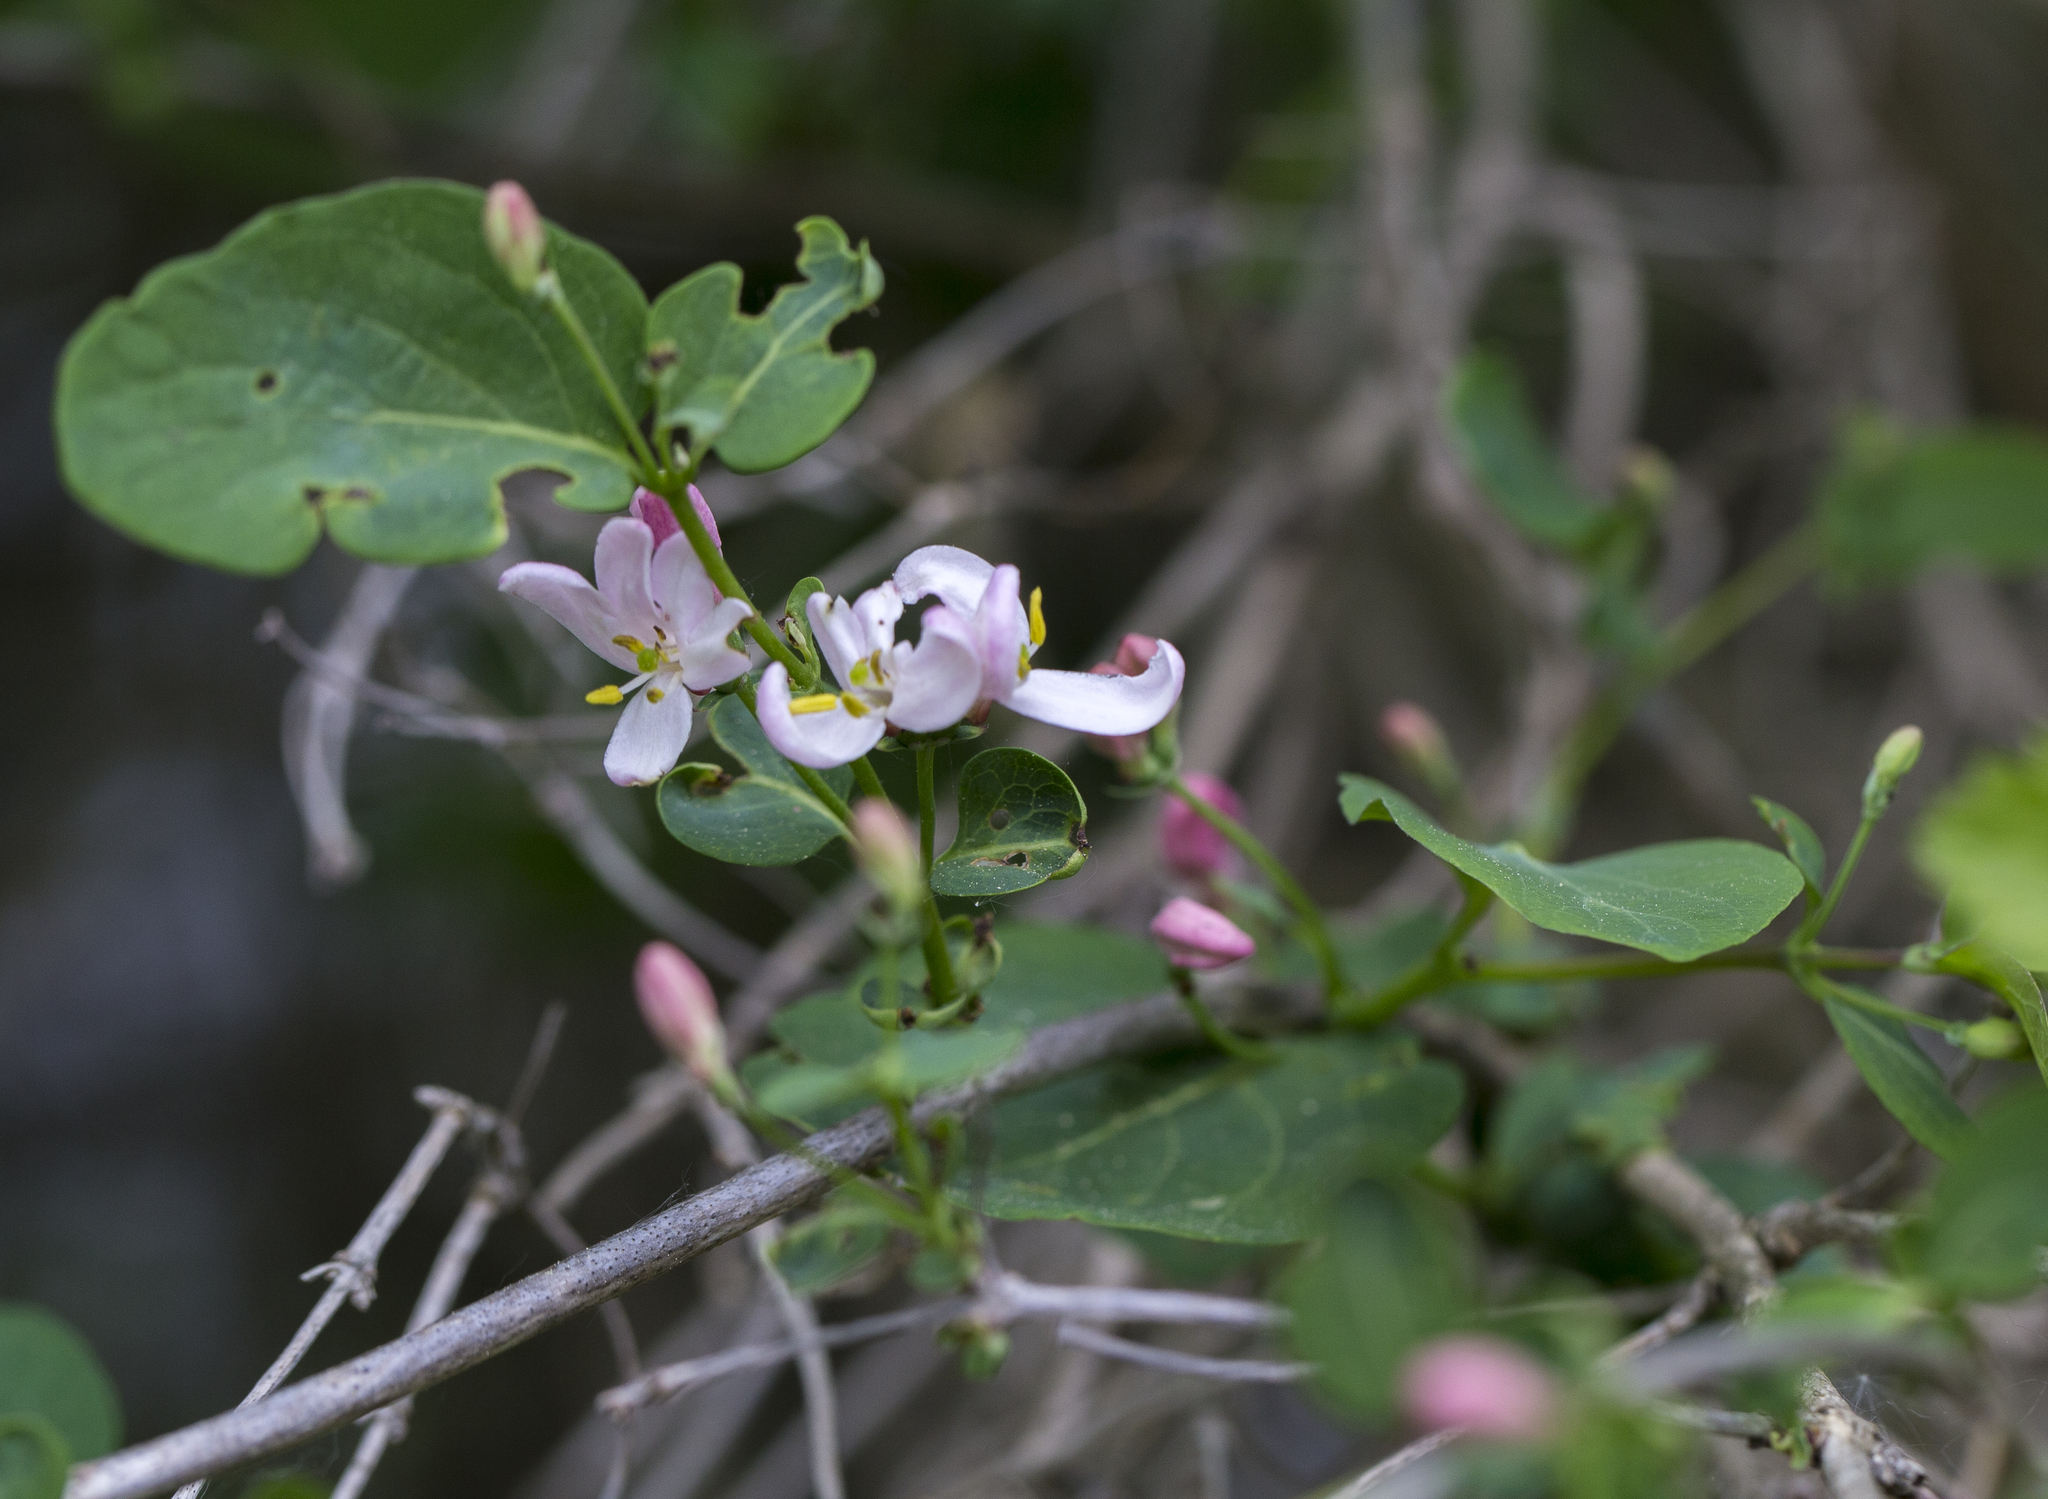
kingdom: Plantae
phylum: Tracheophyta
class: Magnoliopsida
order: Dipsacales
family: Caprifoliaceae
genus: Lonicera
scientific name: Lonicera tatarica
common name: Tatarian honeysuckle
